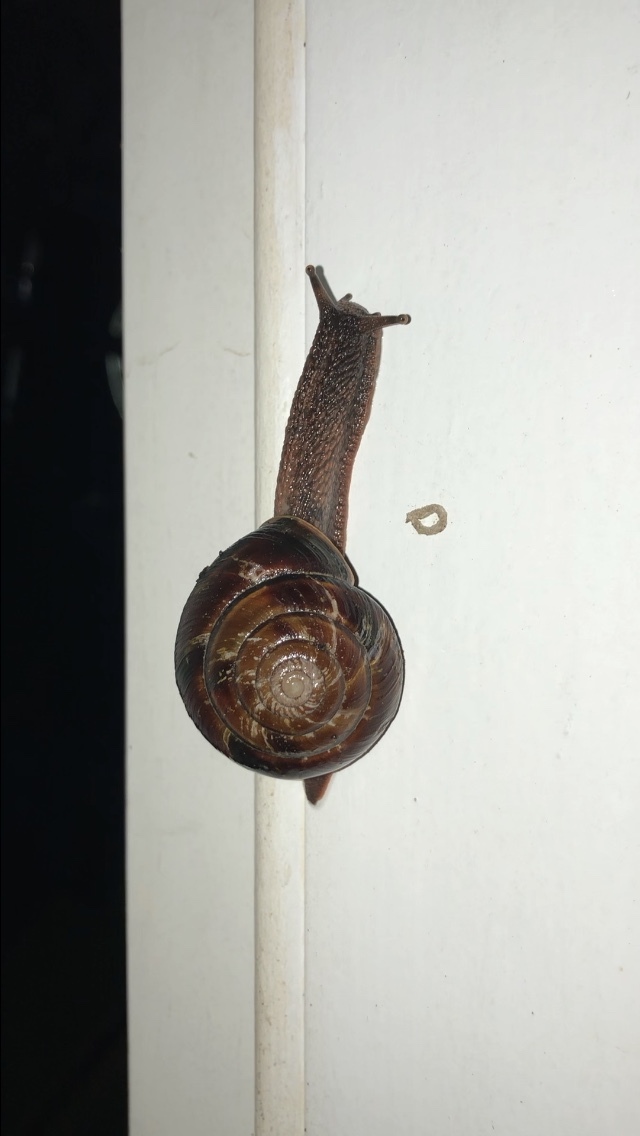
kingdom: Animalia
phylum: Mollusca
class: Gastropoda
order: Stylommatophora
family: Xanthonychidae
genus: Monadenia
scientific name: Monadenia fidelis
